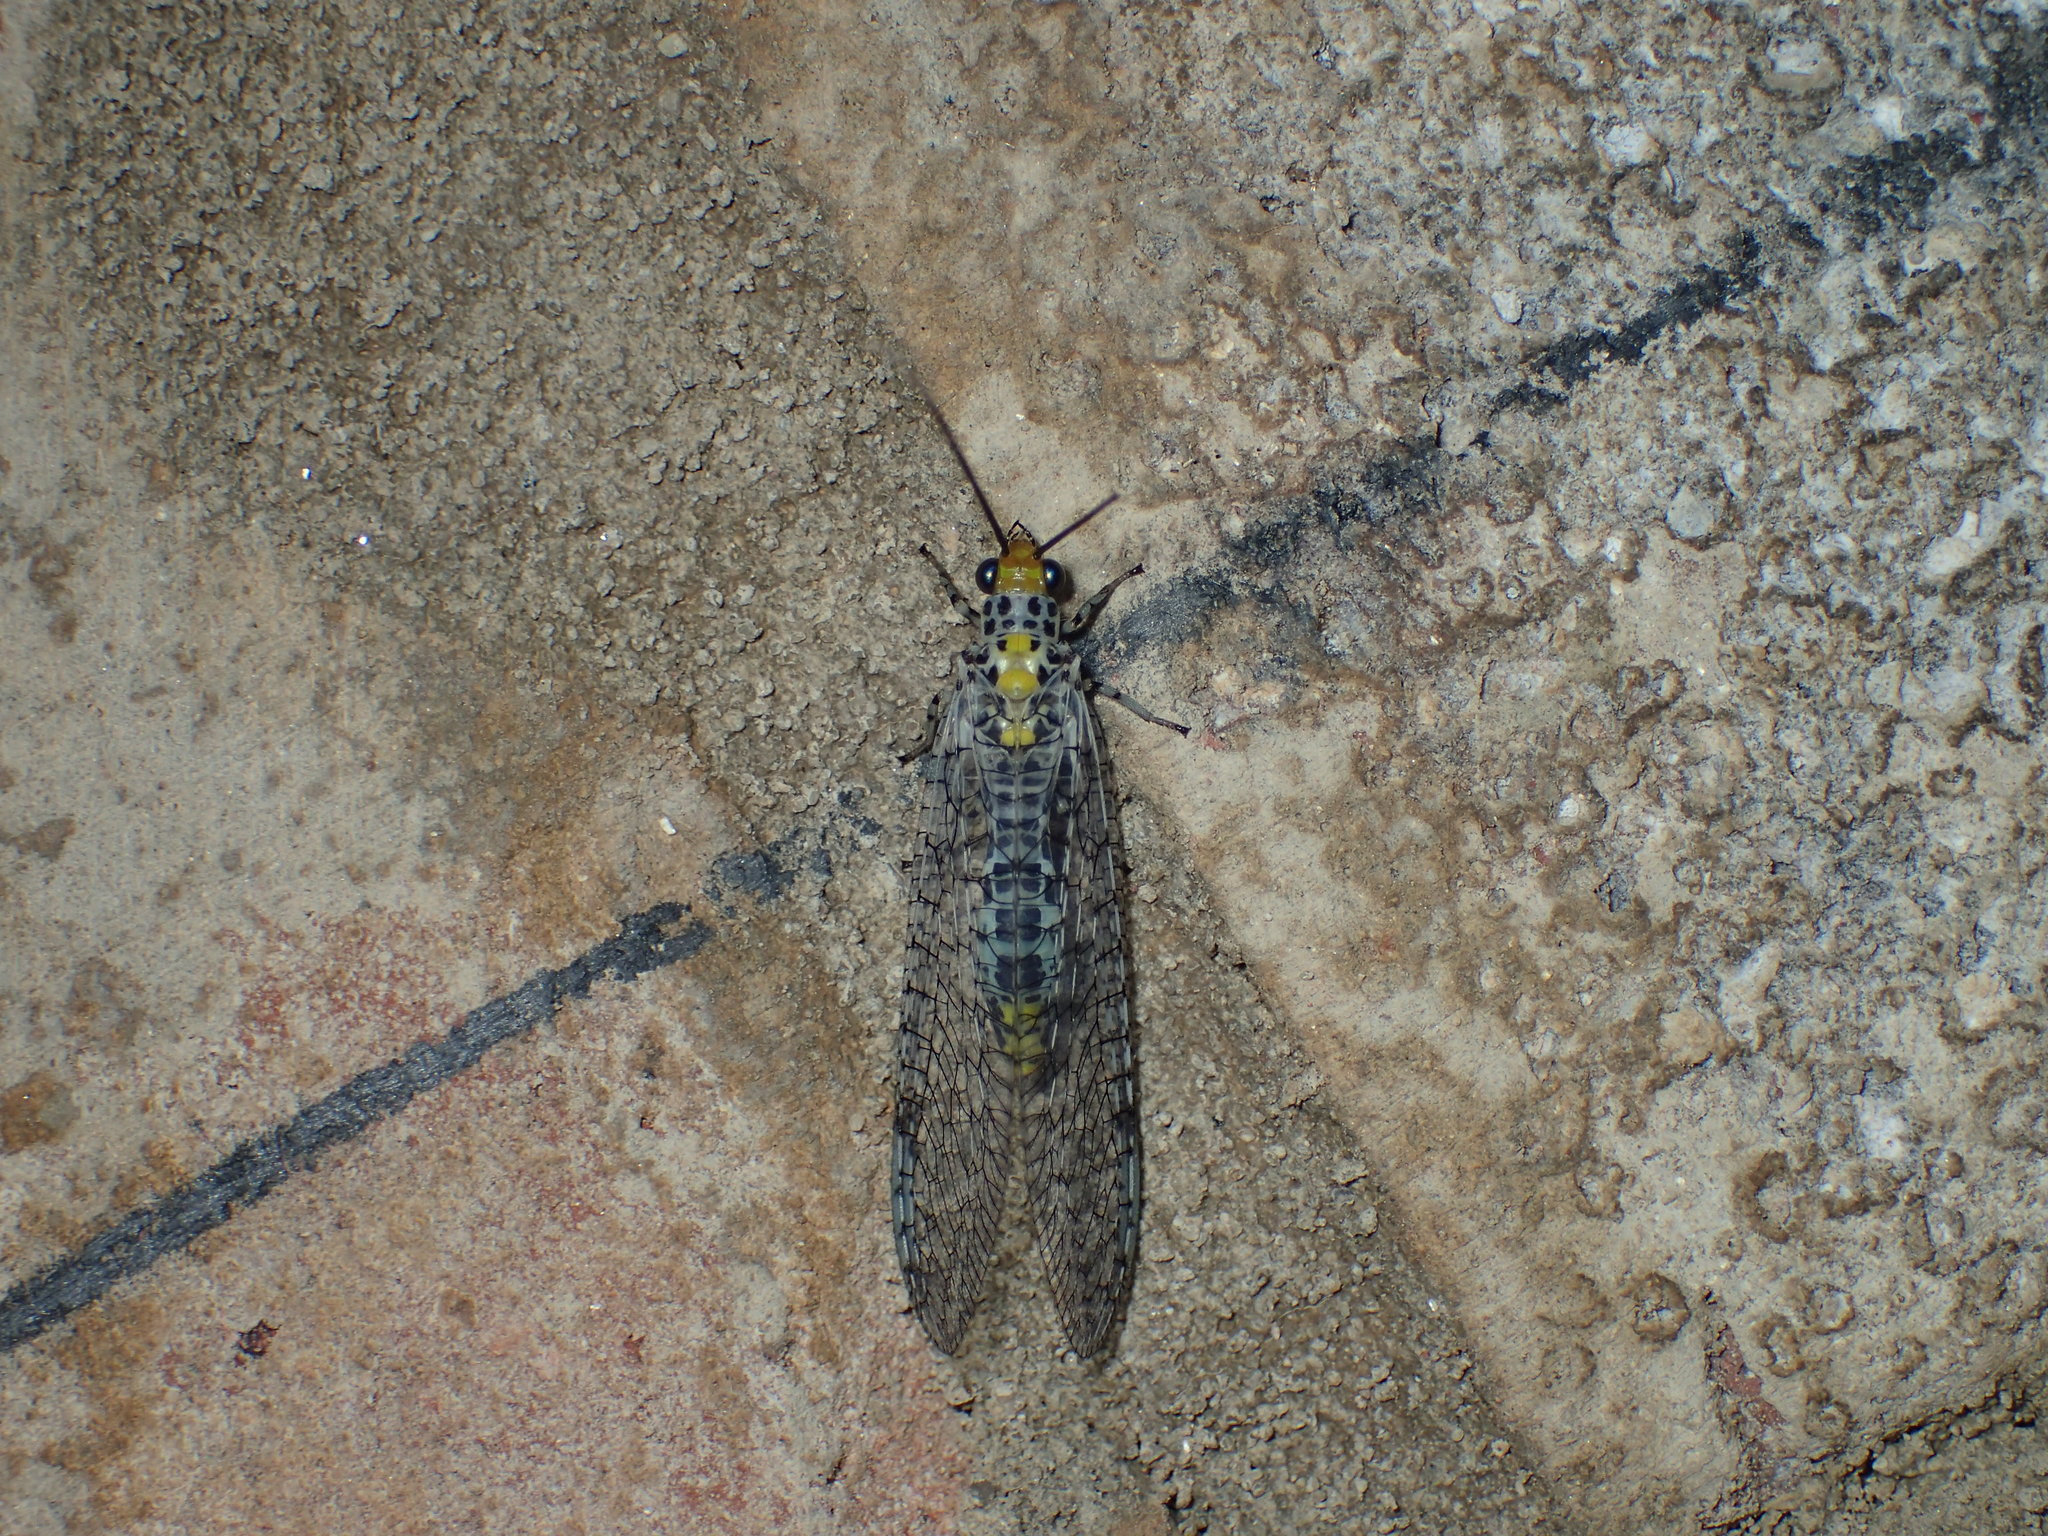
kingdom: Animalia
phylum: Arthropoda
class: Insecta
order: Neuroptera
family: Chrysopidae
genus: Abachrysa
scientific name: Abachrysa eureka
